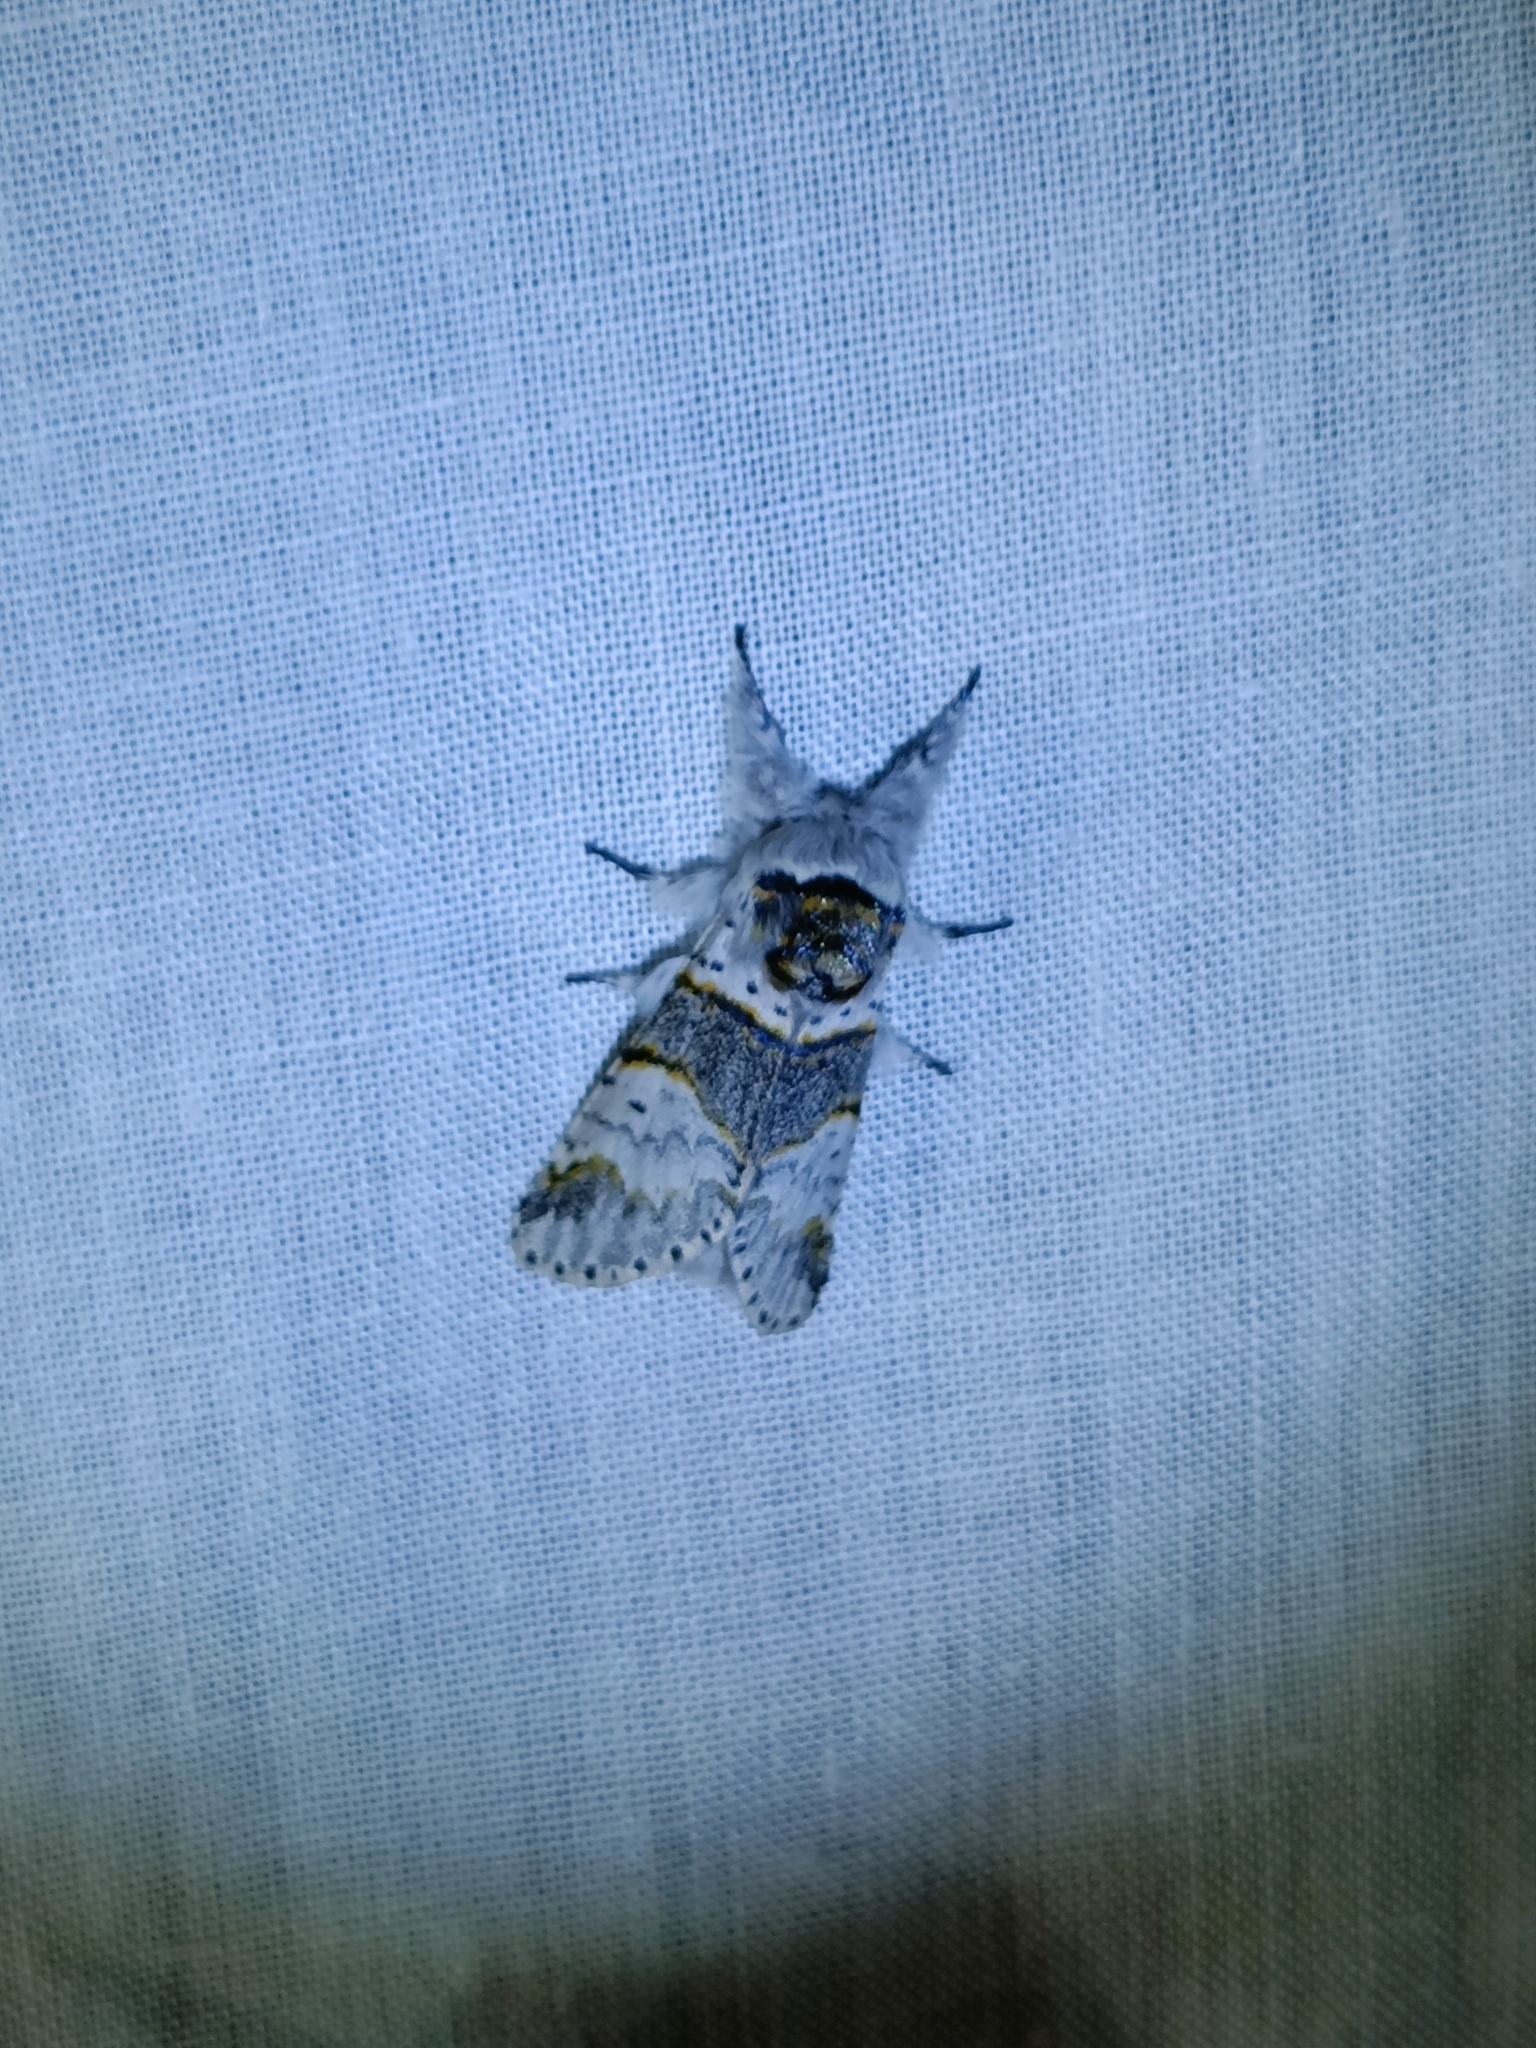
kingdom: Animalia
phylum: Arthropoda
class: Insecta
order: Lepidoptera
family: Notodontidae
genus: Furcula
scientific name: Furcula bifida
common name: Poplar kitten
